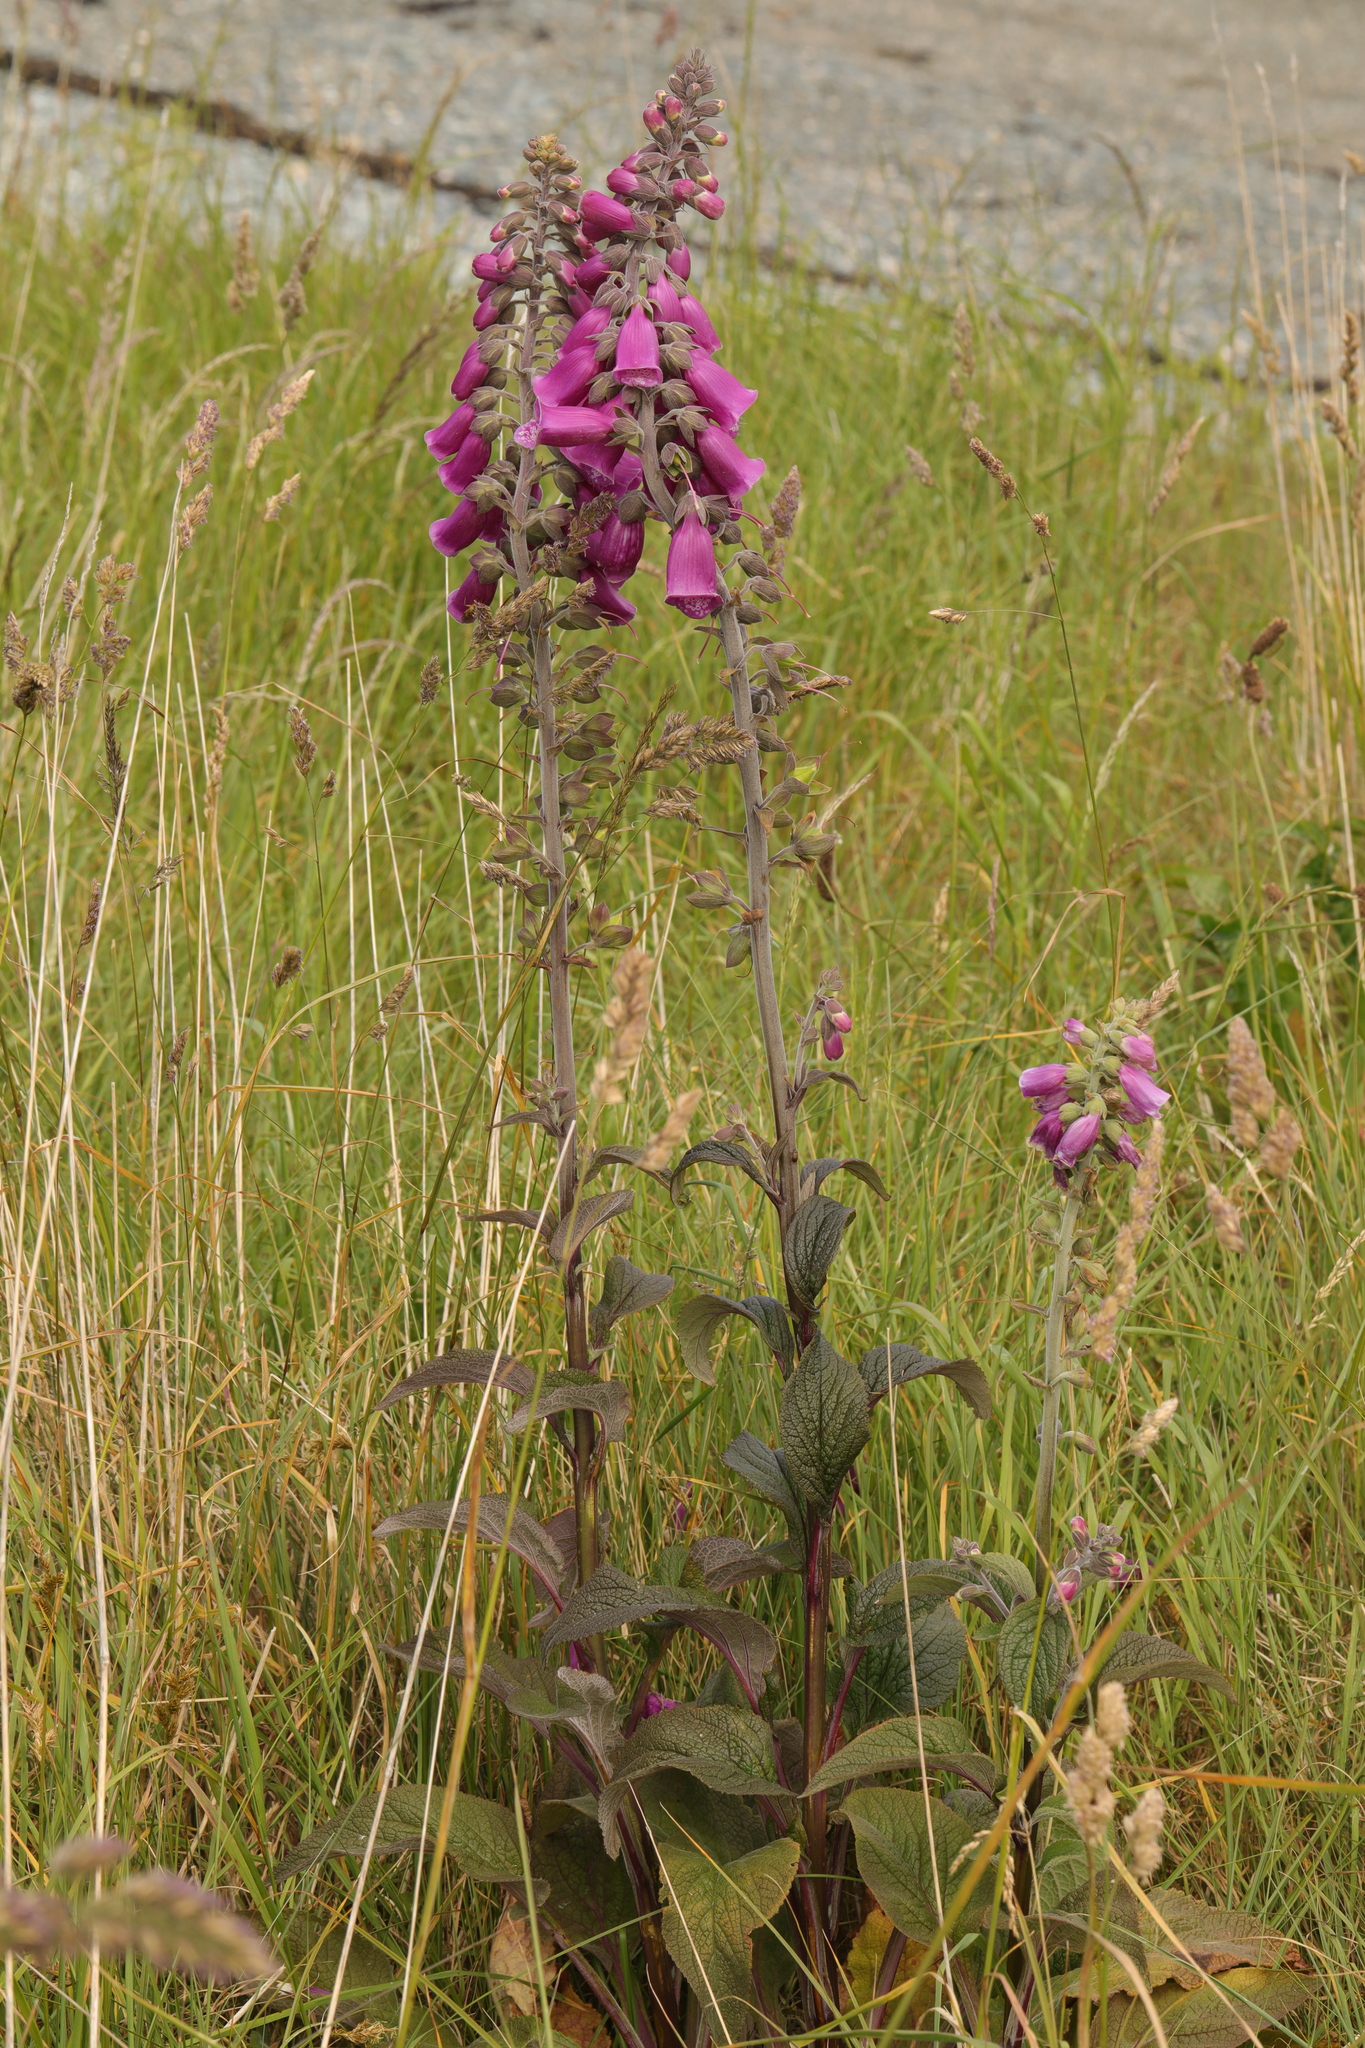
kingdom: Plantae
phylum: Tracheophyta
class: Magnoliopsida
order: Lamiales
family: Plantaginaceae
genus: Digitalis
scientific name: Digitalis purpurea
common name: Foxglove
